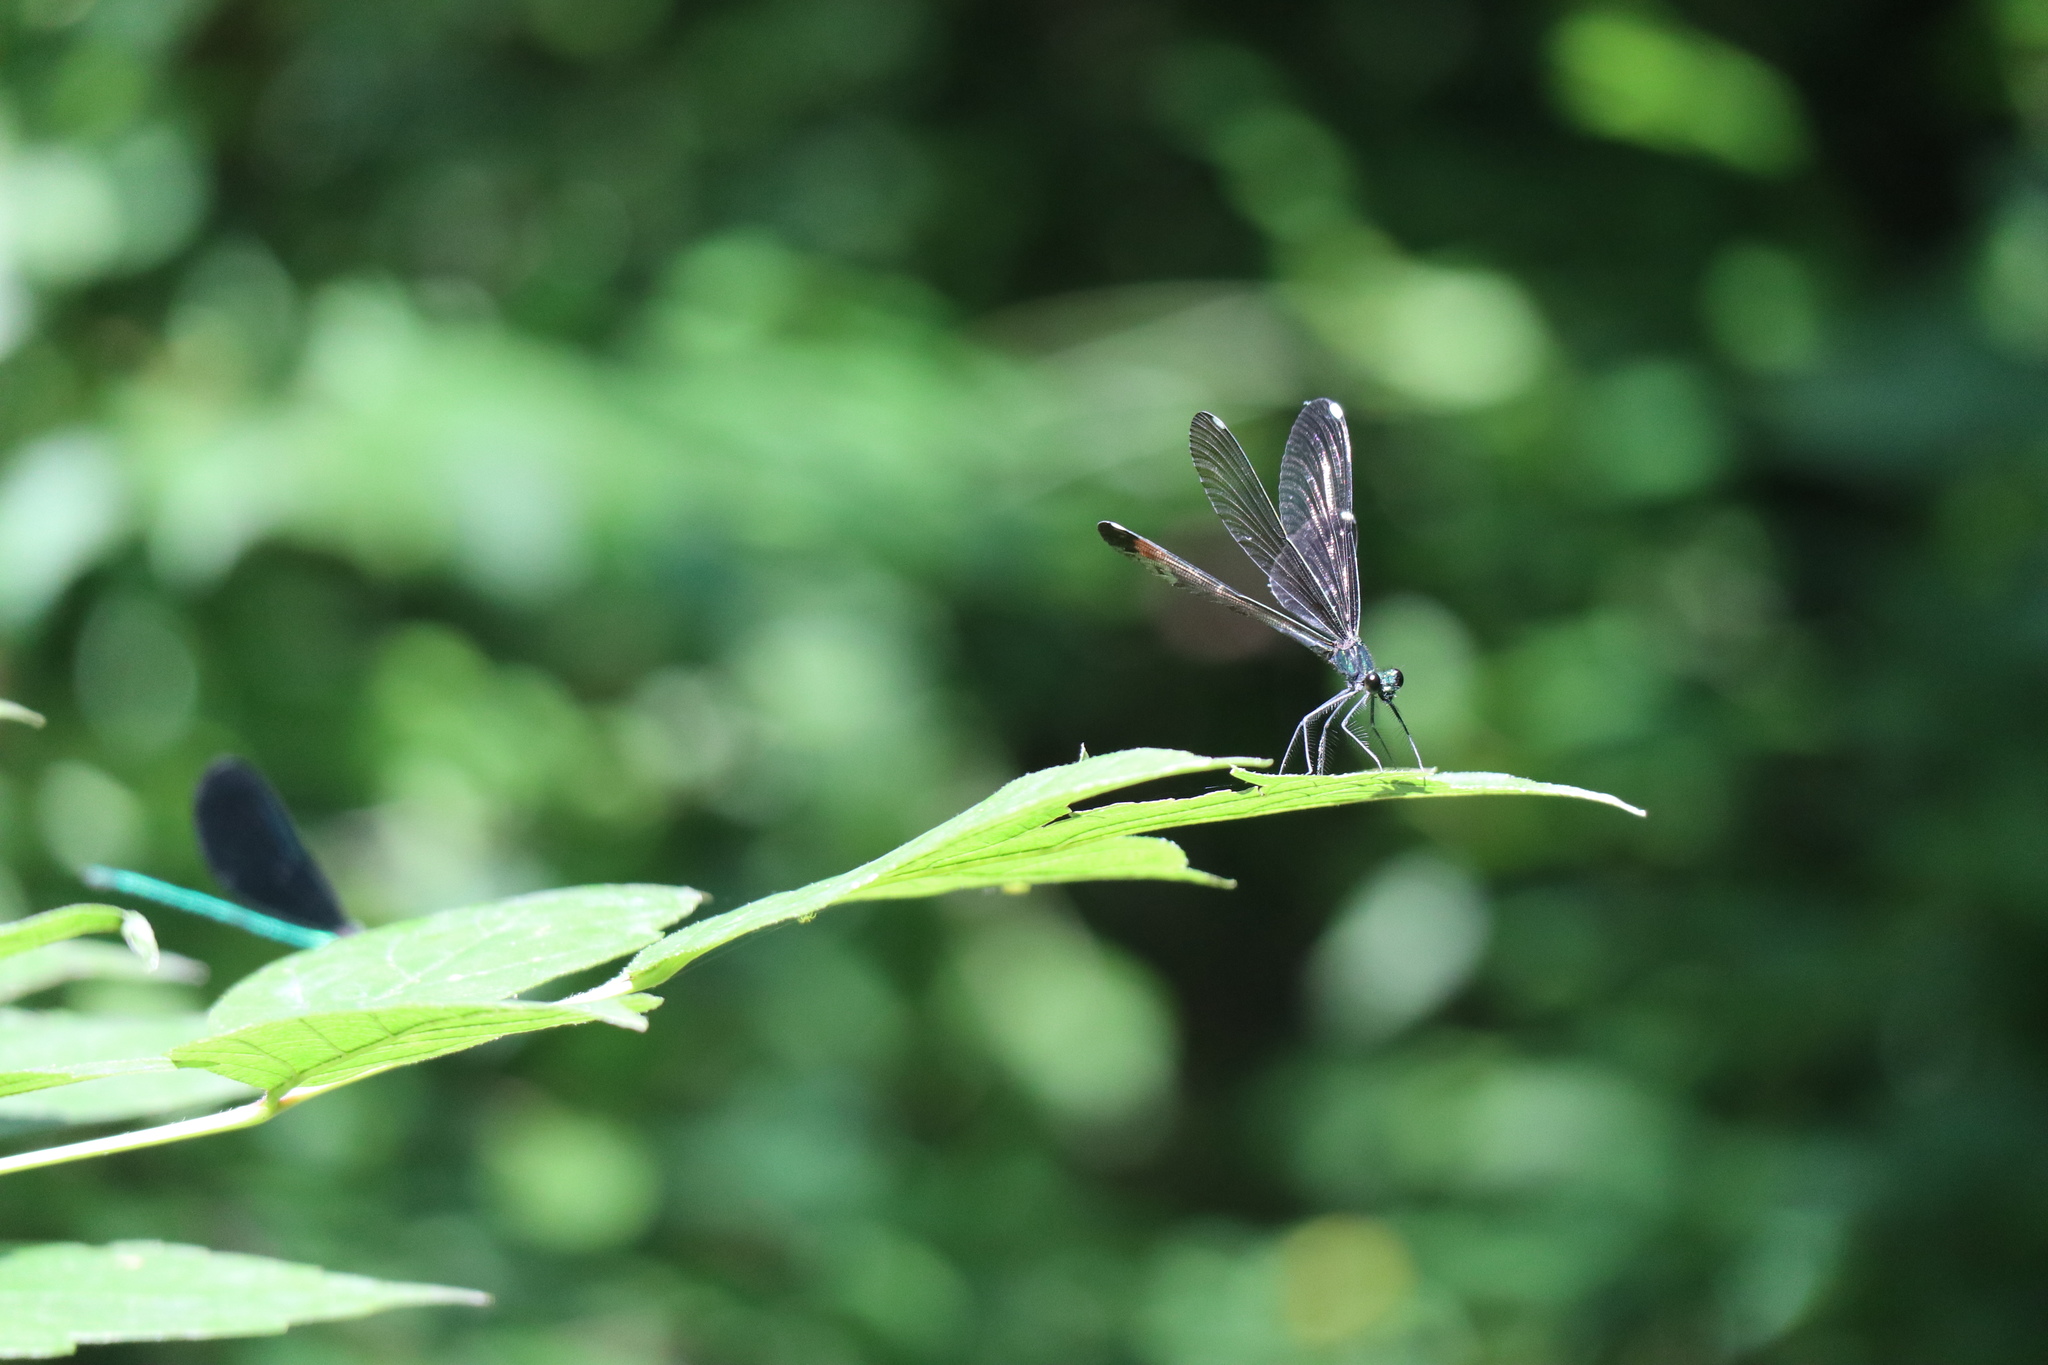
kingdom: Animalia
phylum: Arthropoda
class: Insecta
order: Odonata
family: Calopterygidae
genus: Calopteryx
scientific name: Calopteryx maculata
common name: Ebony jewelwing
